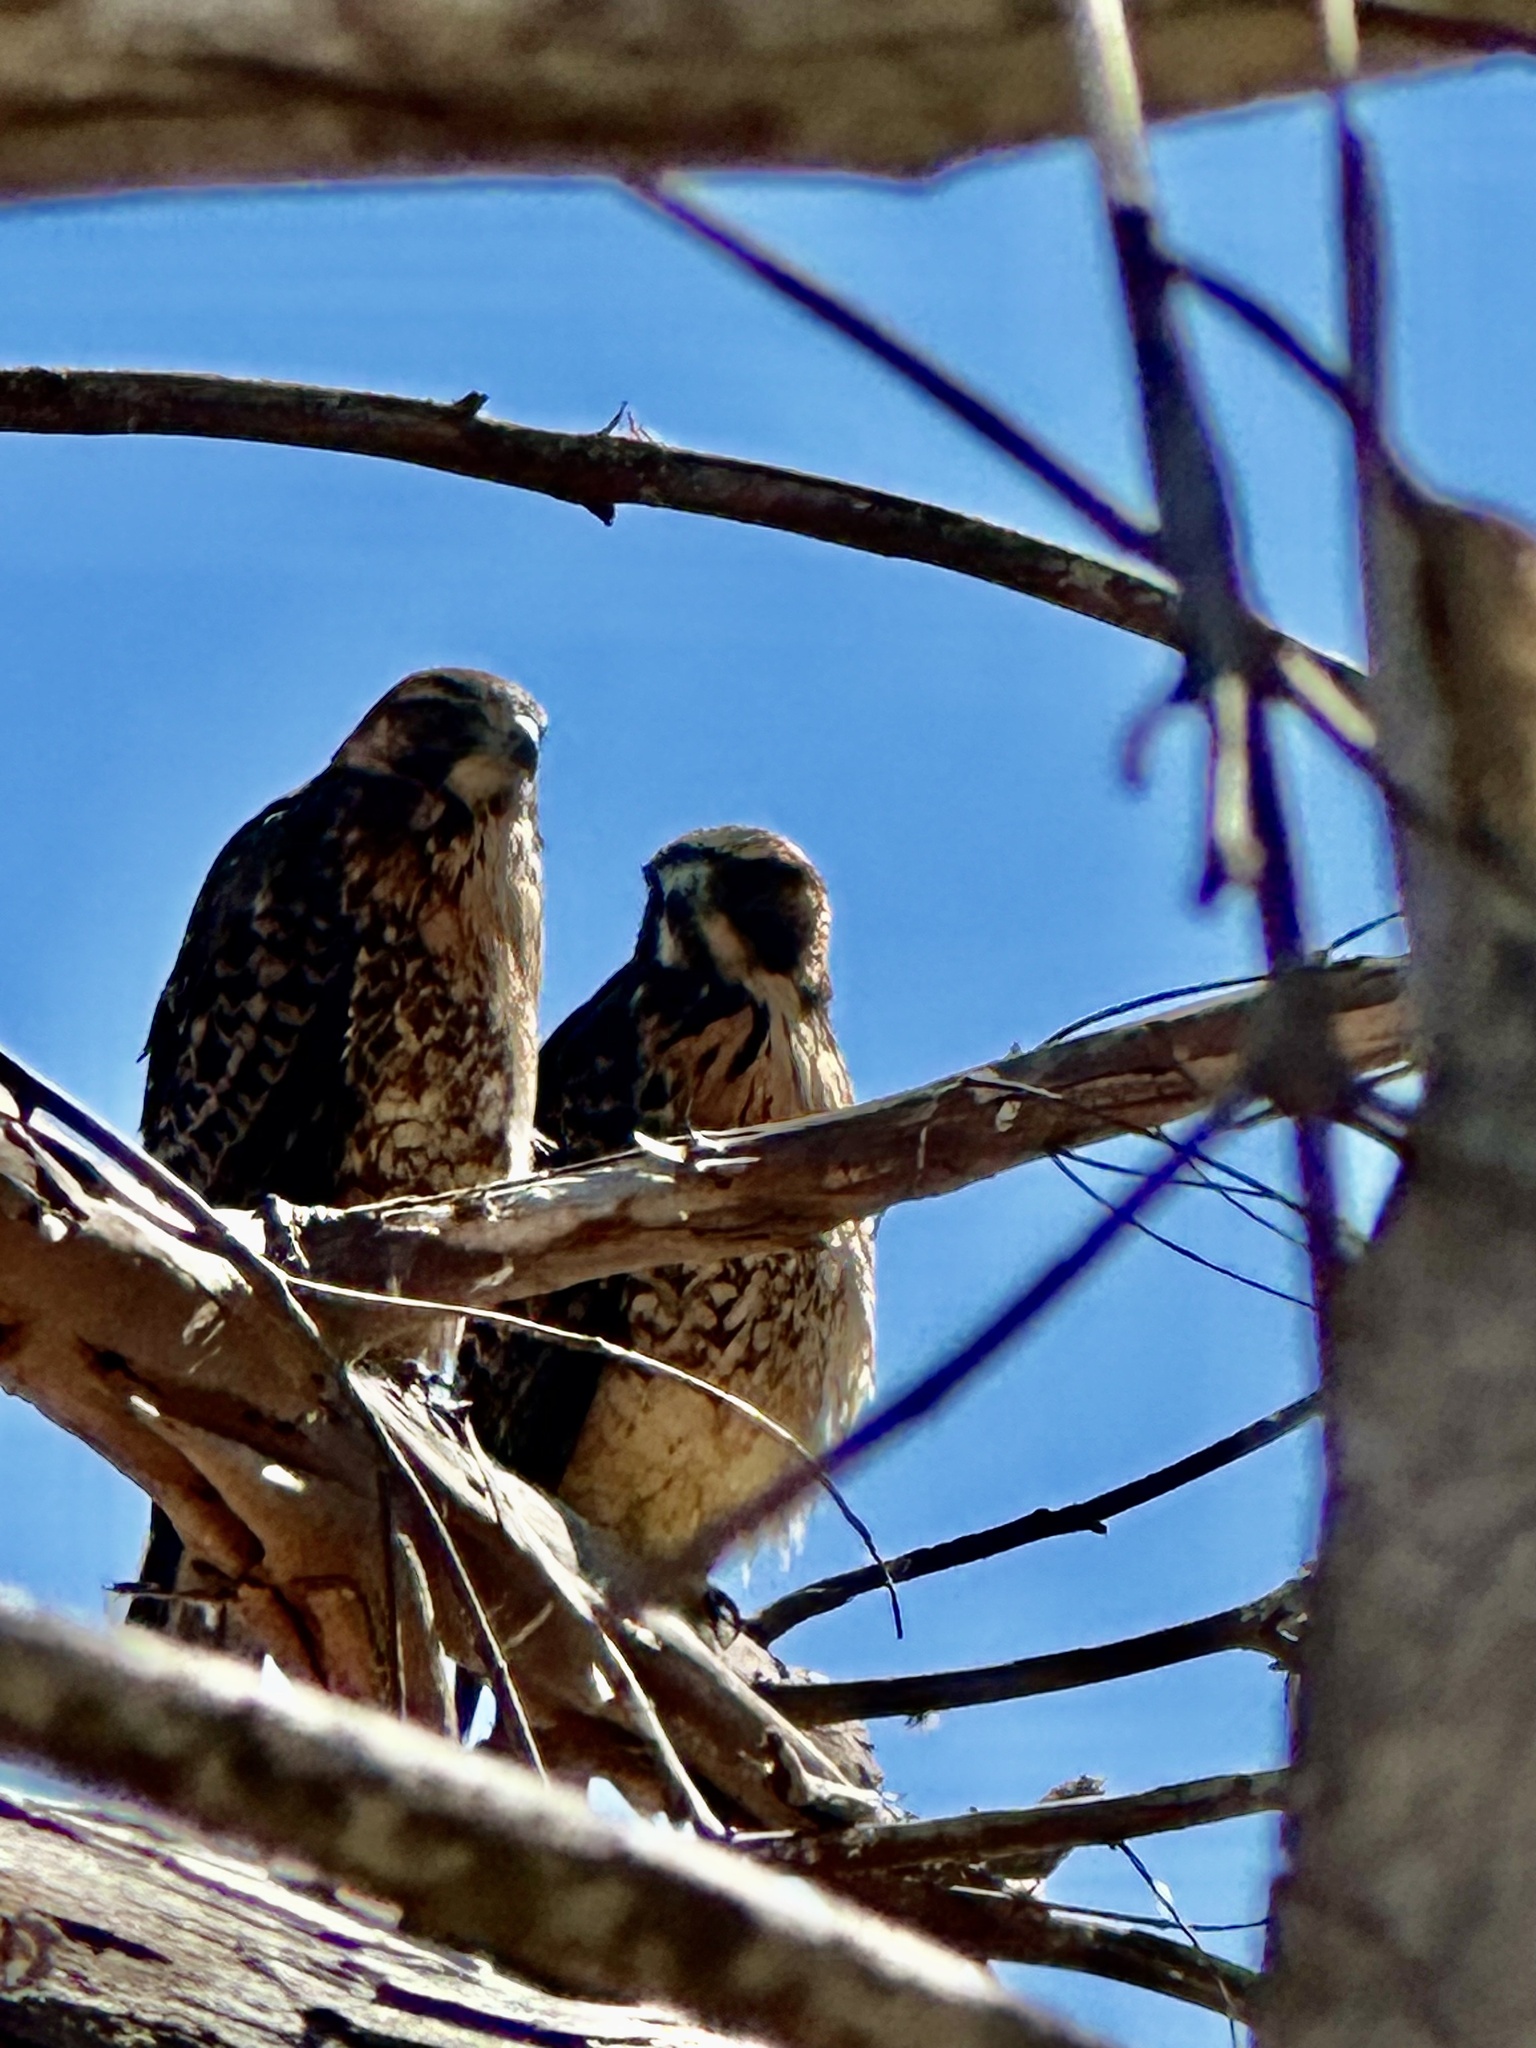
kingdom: Animalia
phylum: Chordata
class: Aves
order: Accipitriformes
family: Accipitridae
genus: Parabuteo
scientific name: Parabuteo unicinctus
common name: Harris's hawk
